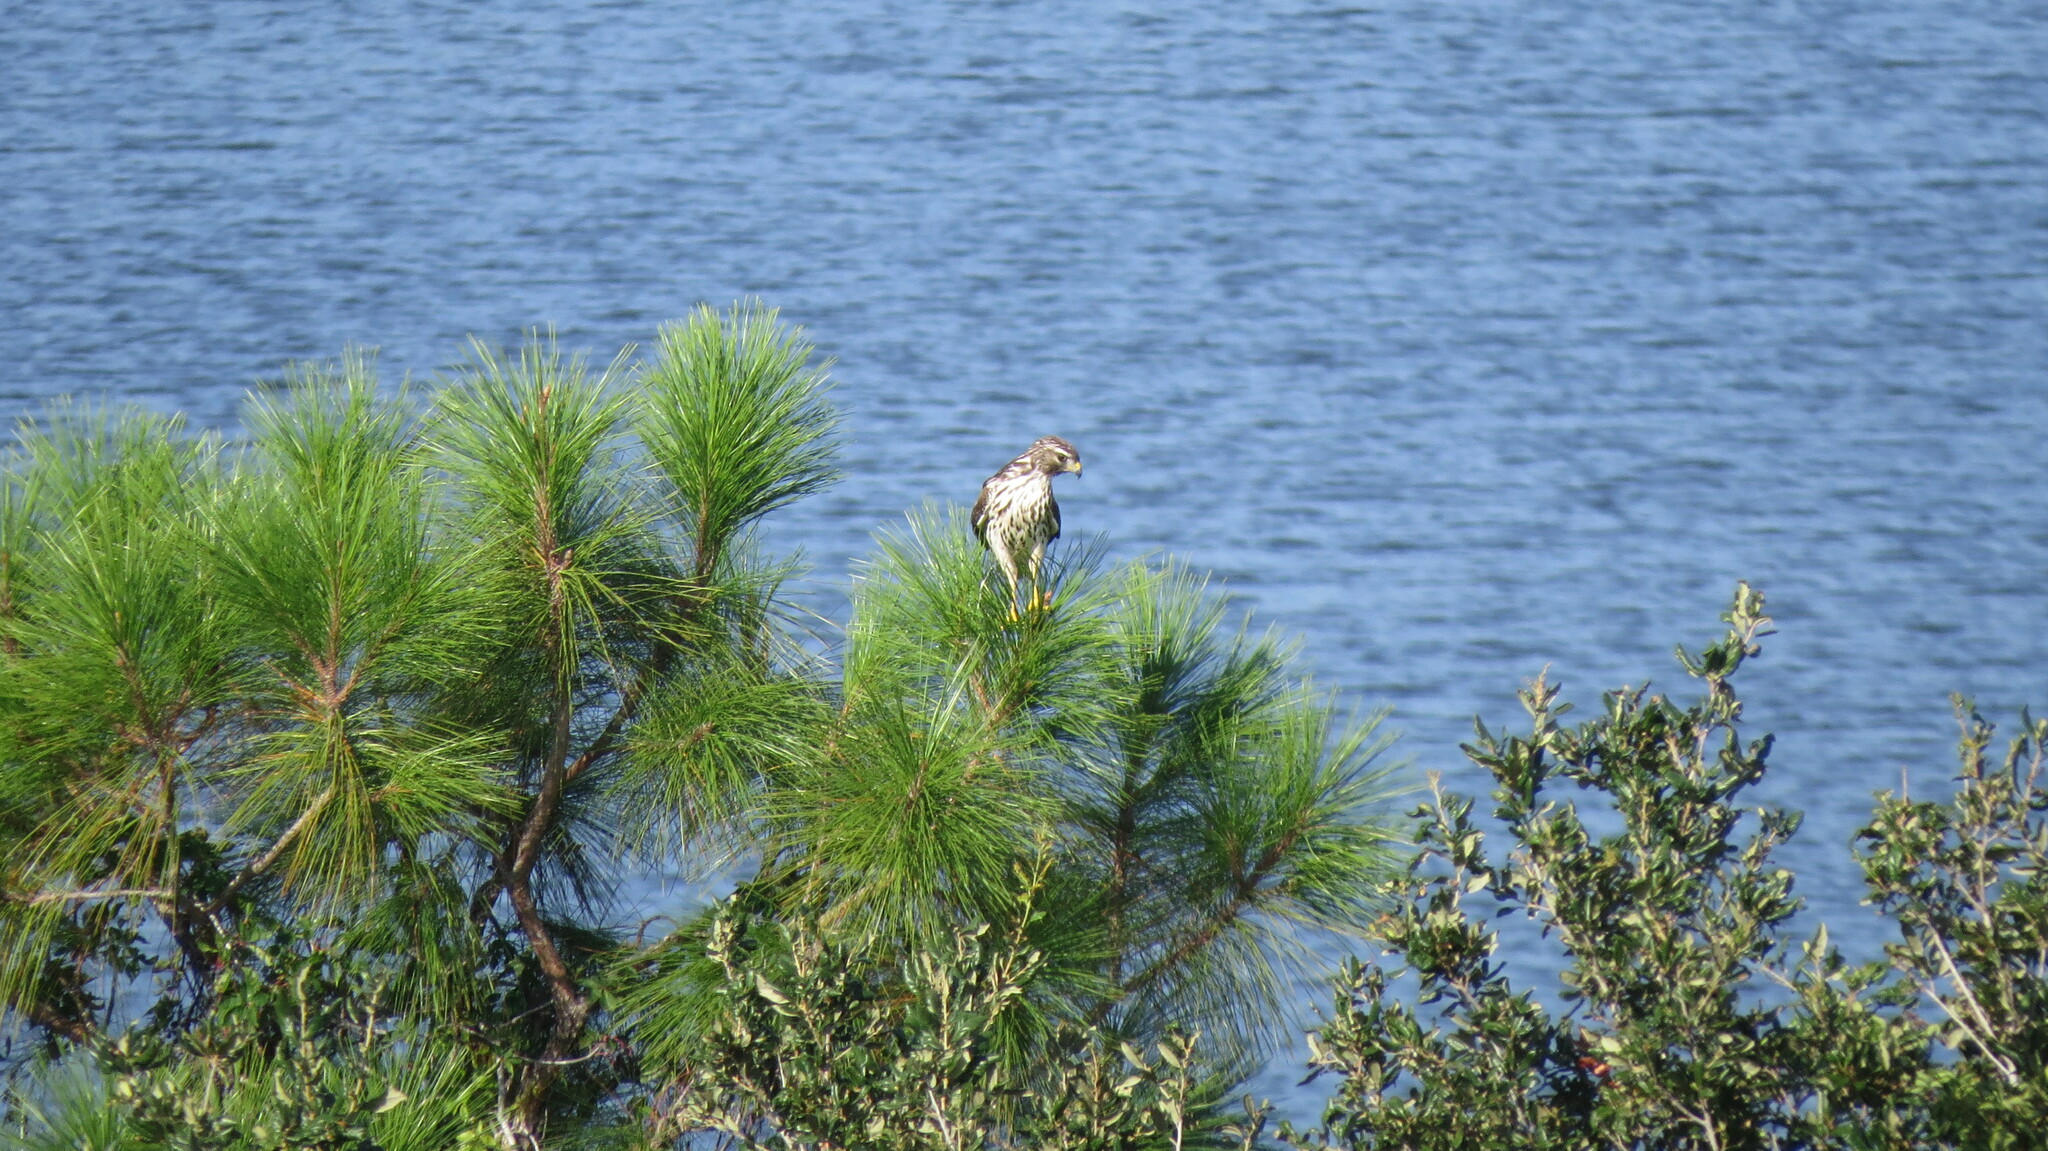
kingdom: Animalia
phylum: Chordata
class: Aves
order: Accipitriformes
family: Accipitridae
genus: Buteo
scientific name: Buteo lineatus
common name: Red-shouldered hawk
